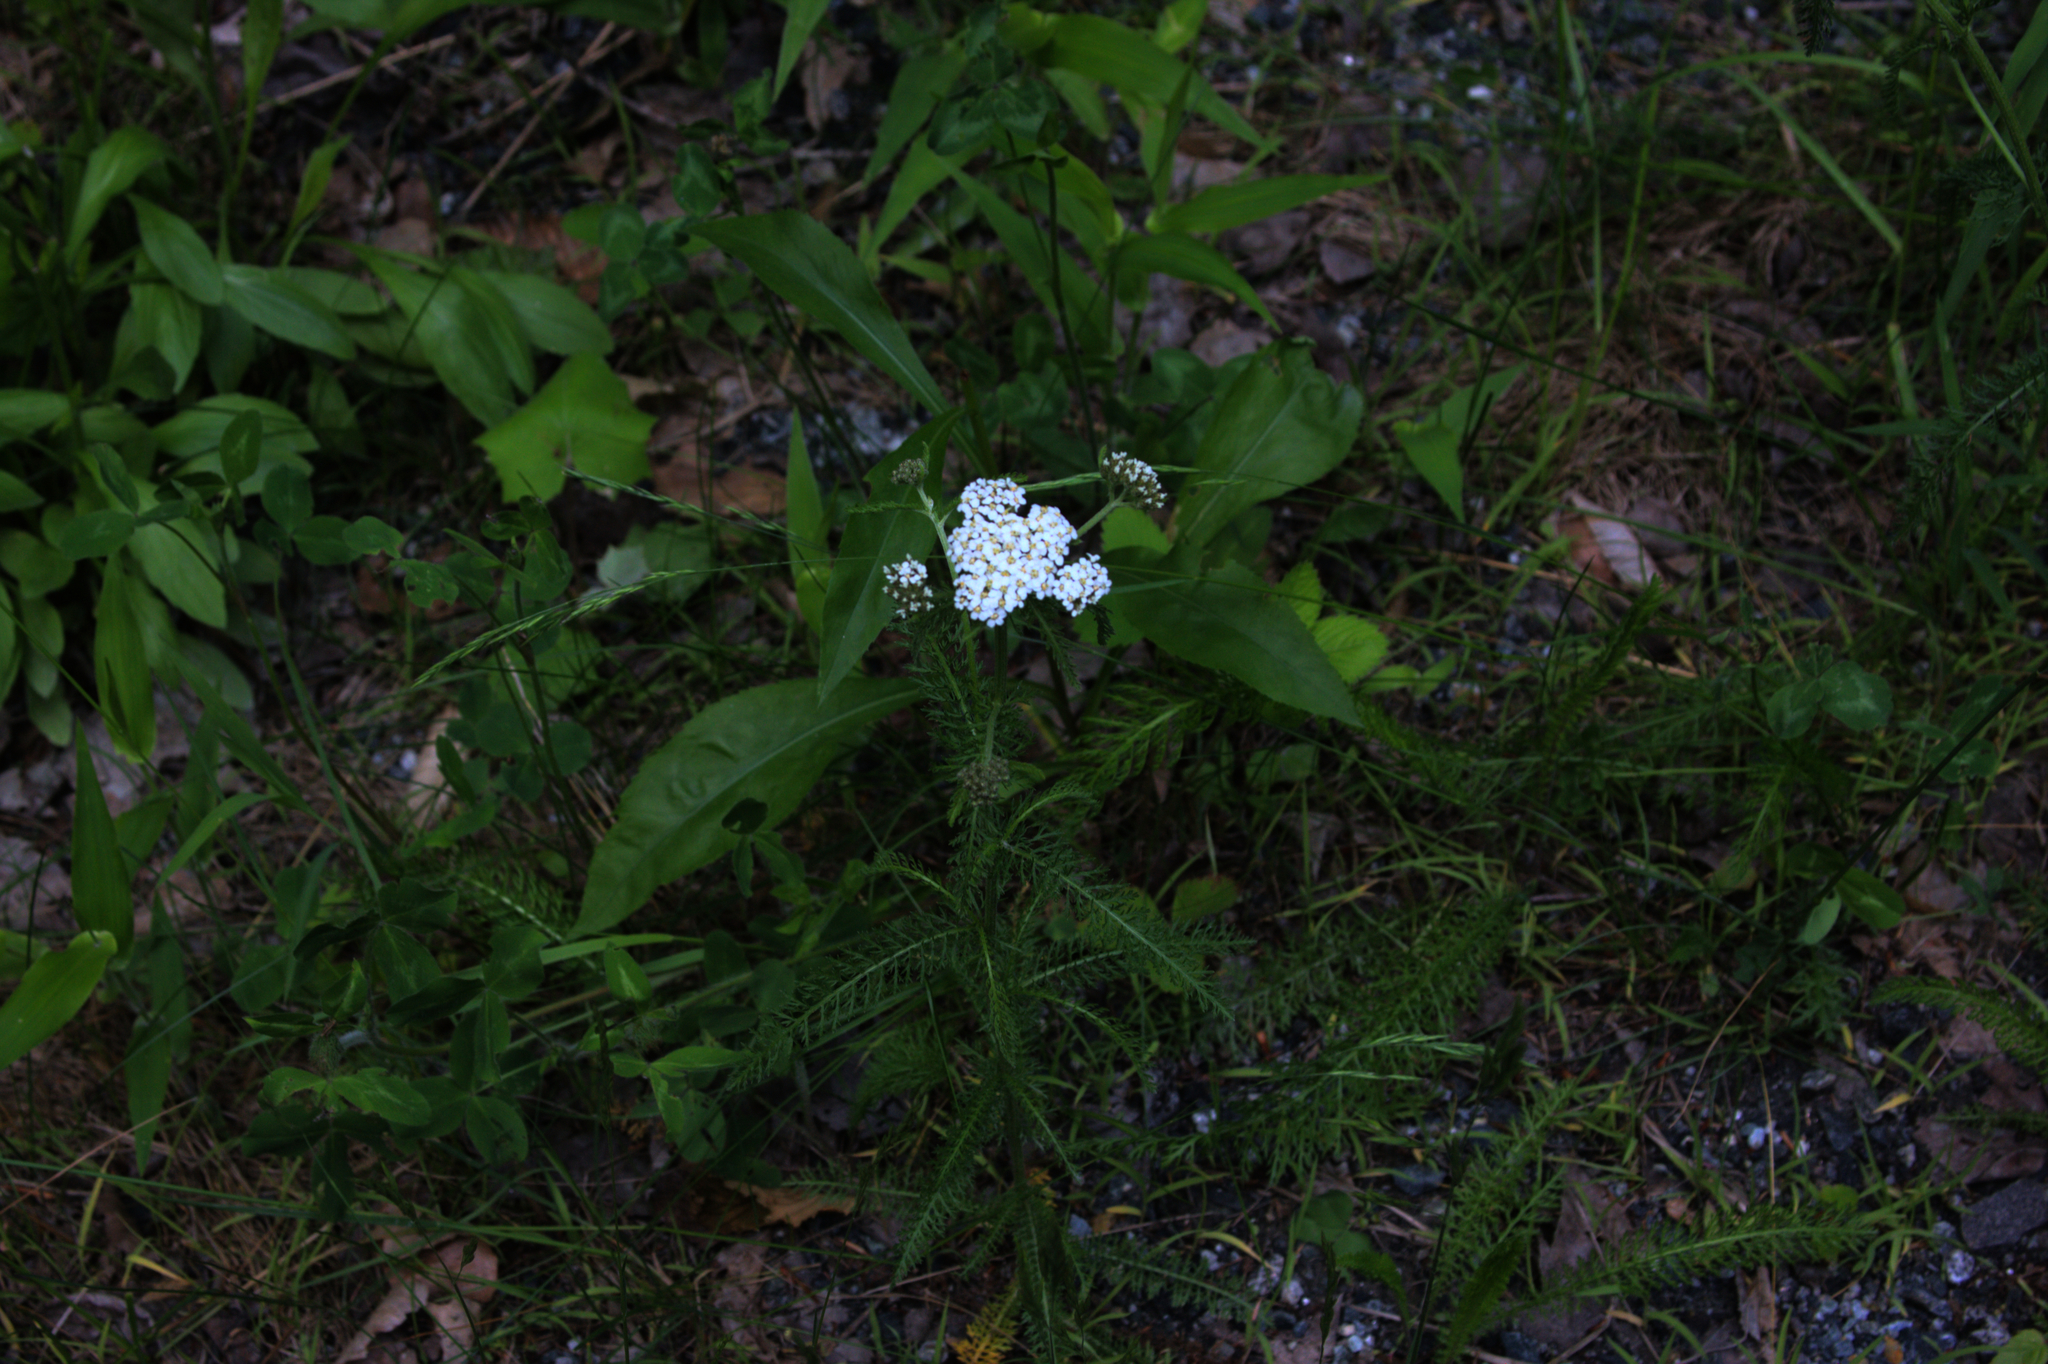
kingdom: Plantae
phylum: Tracheophyta
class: Magnoliopsida
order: Asterales
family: Asteraceae
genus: Achillea
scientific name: Achillea millefolium
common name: Yarrow
